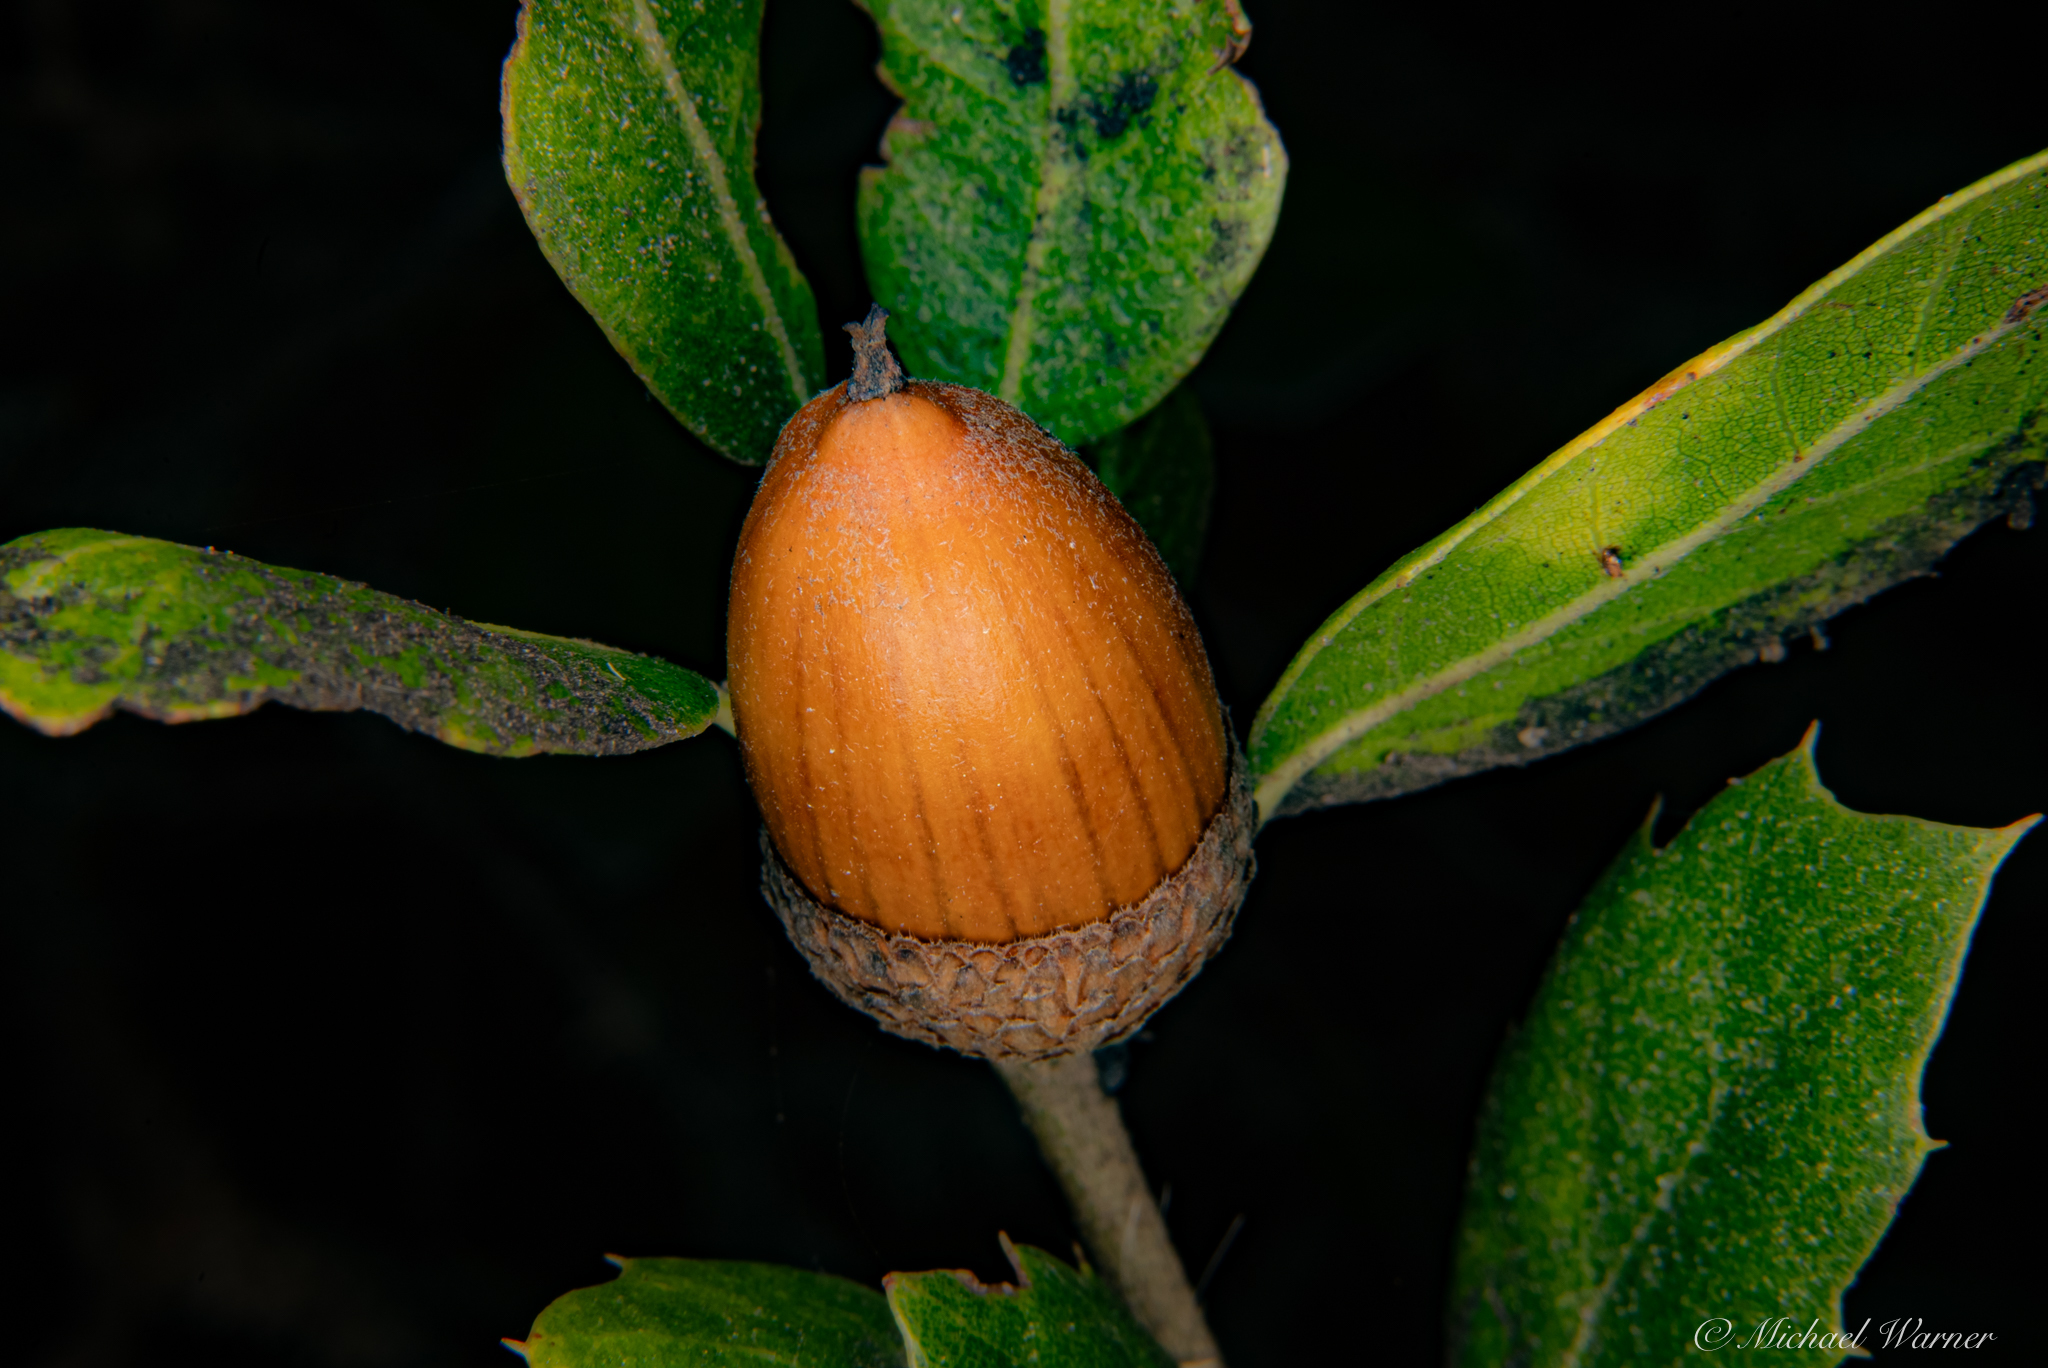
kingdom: Plantae
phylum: Tracheophyta
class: Magnoliopsida
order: Fagales
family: Fagaceae
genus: Quercus
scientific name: Quercus agrifolia
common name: California live oak
